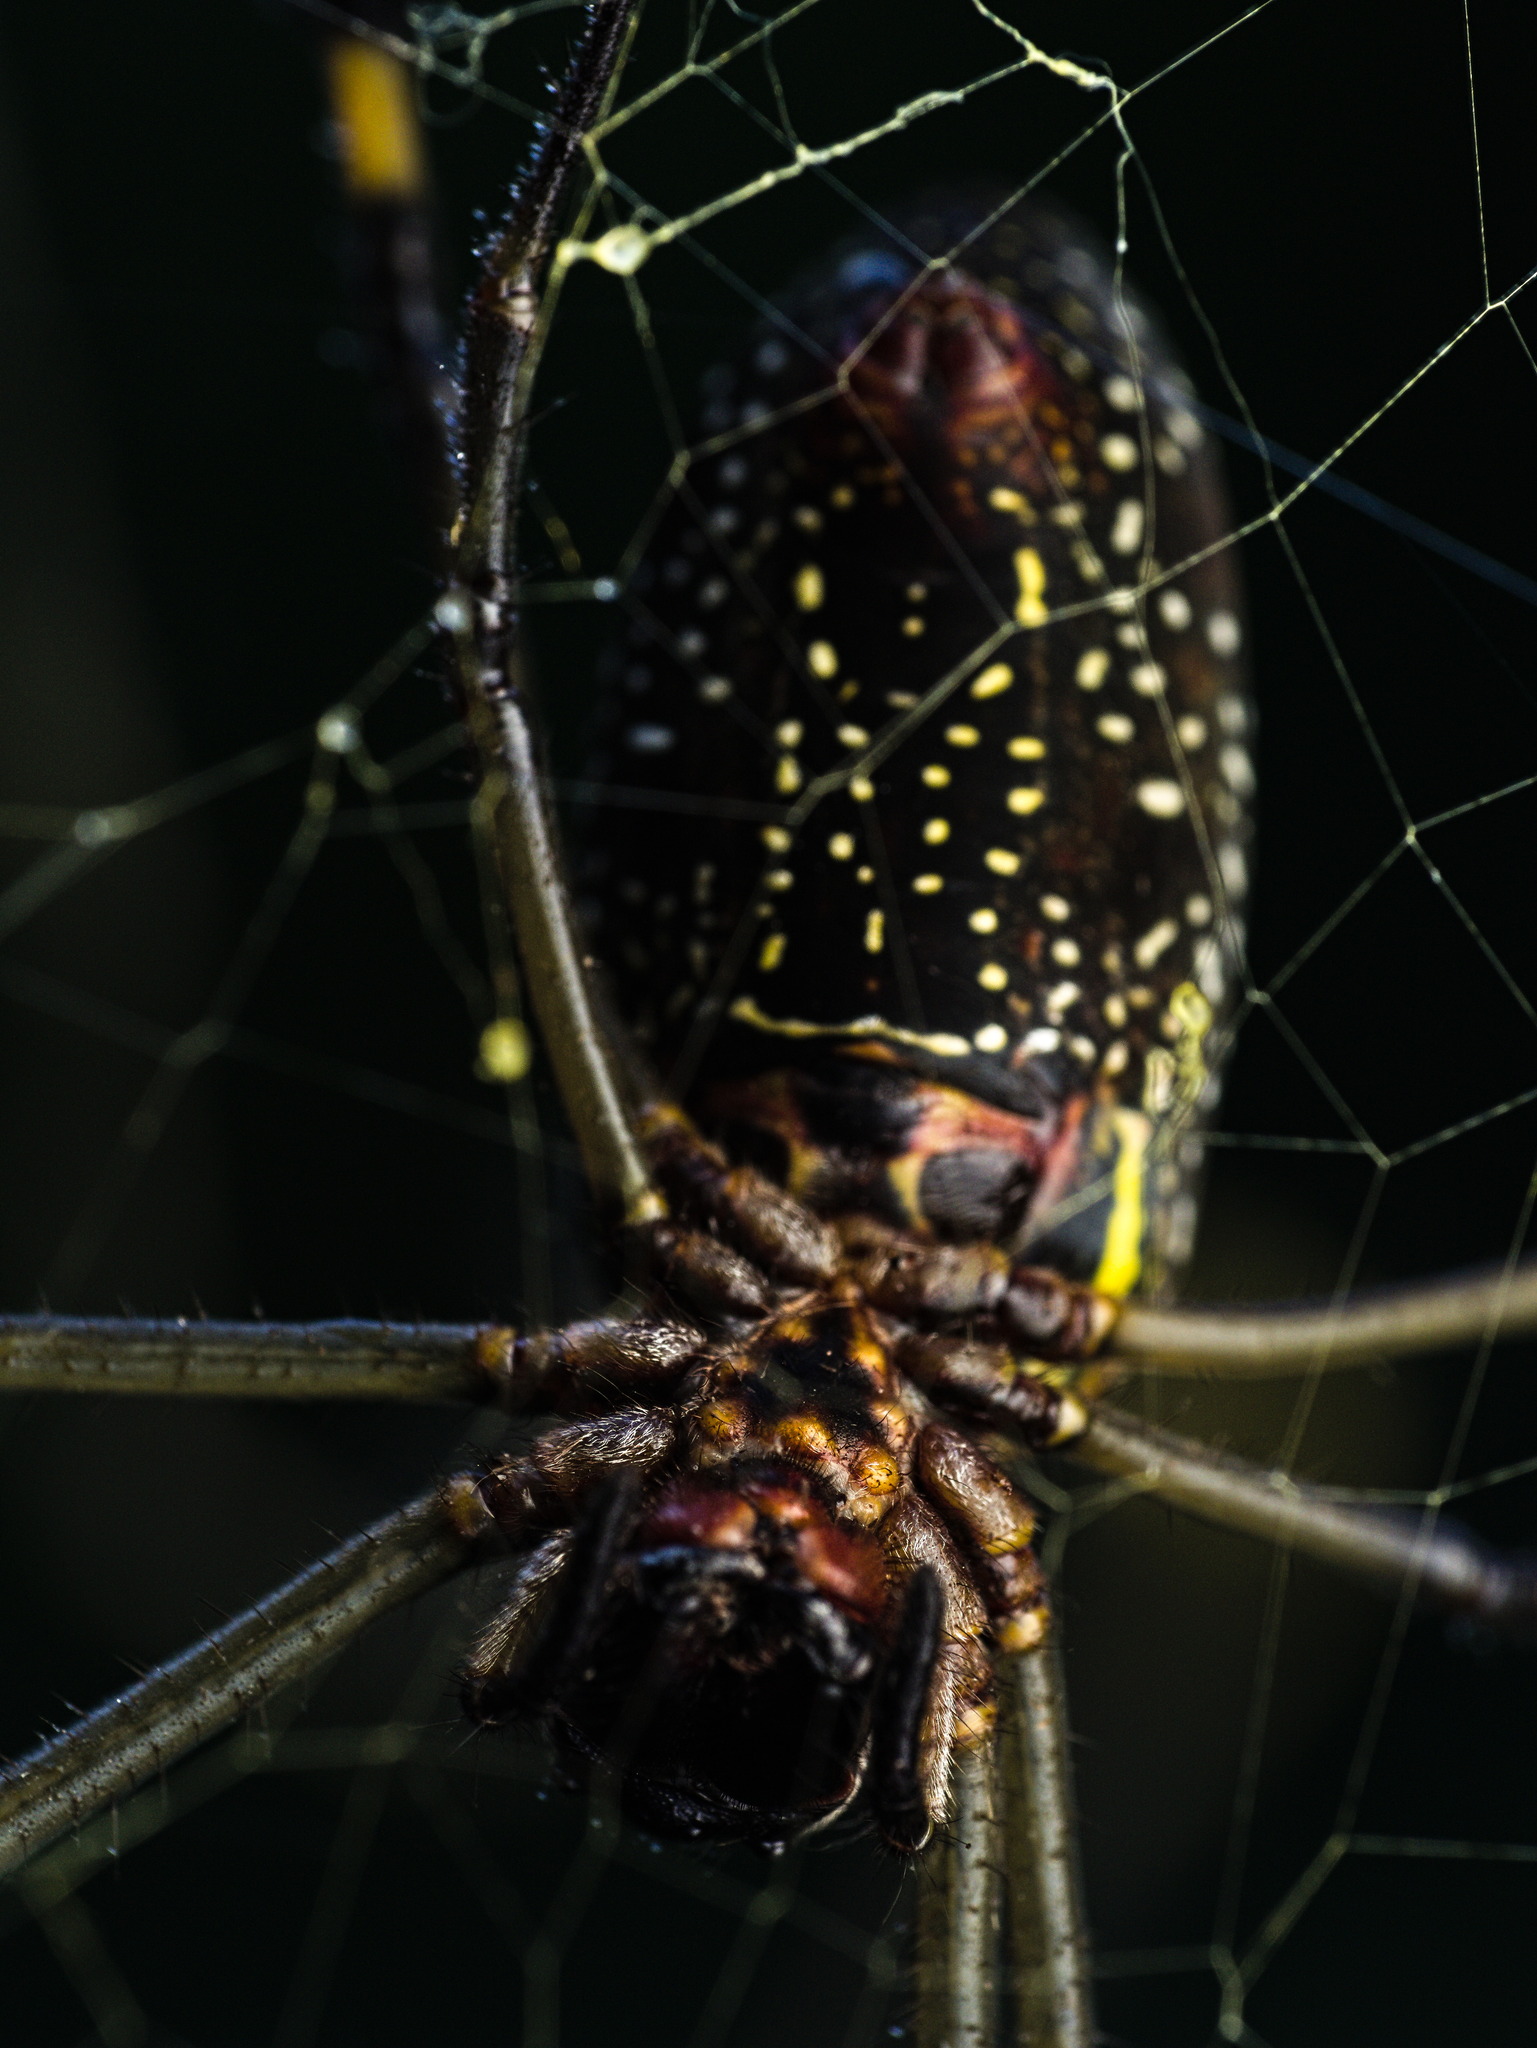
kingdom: Animalia
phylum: Arthropoda
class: Arachnida
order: Araneae
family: Araneidae
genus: Trichonephila
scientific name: Trichonephila clavipes
